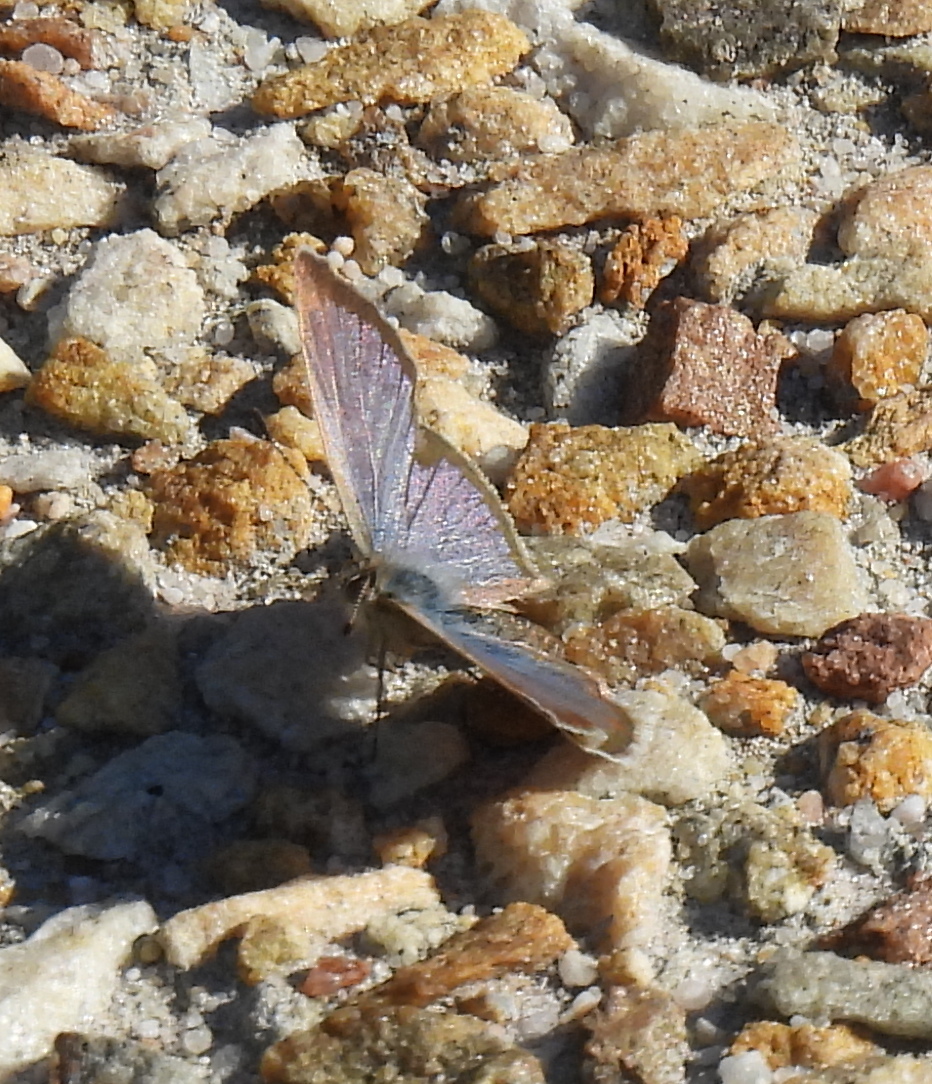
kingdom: Animalia
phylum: Arthropoda
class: Insecta
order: Lepidoptera
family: Lycaenidae
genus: Zizeeria
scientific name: Zizeeria knysna
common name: African grass blue
